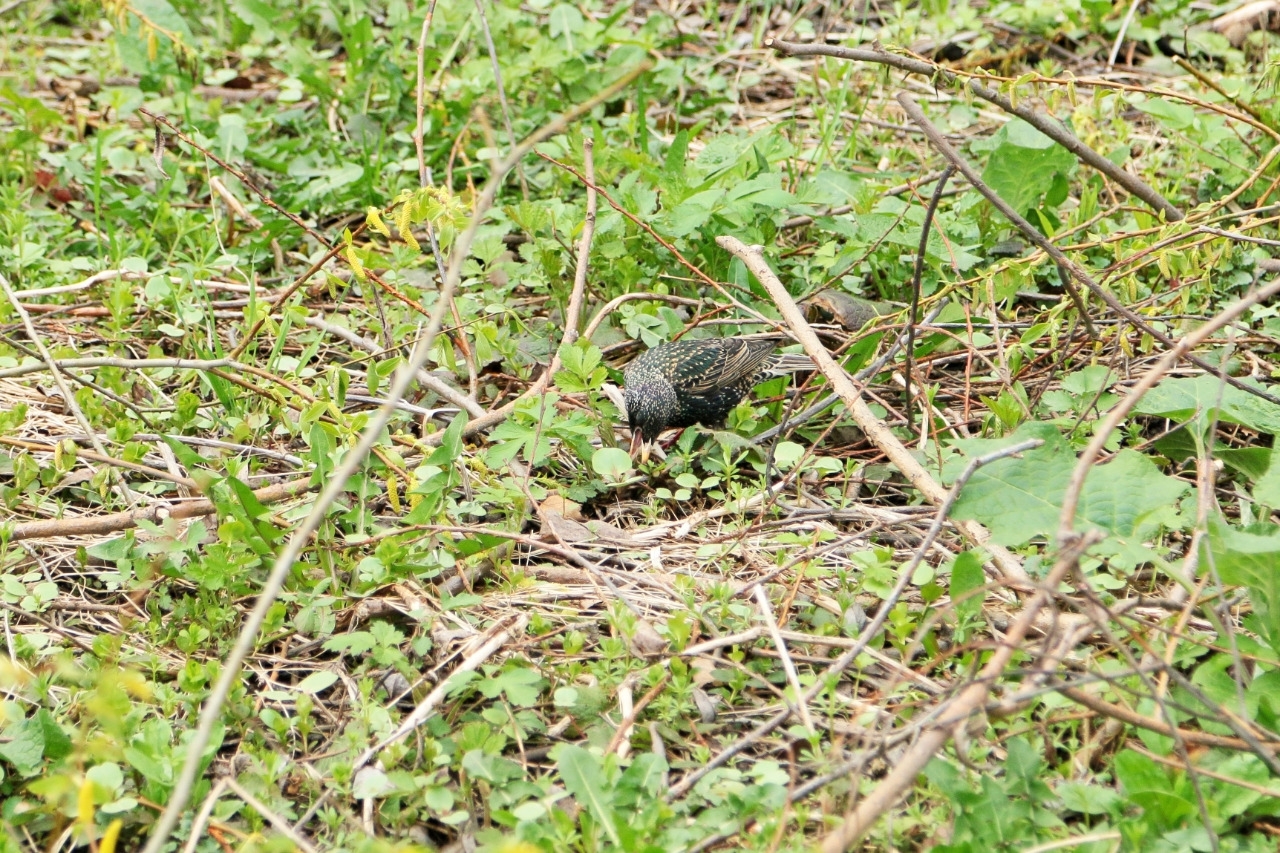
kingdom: Animalia
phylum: Chordata
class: Aves
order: Passeriformes
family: Sturnidae
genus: Sturnus
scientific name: Sturnus vulgaris
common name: Common starling
